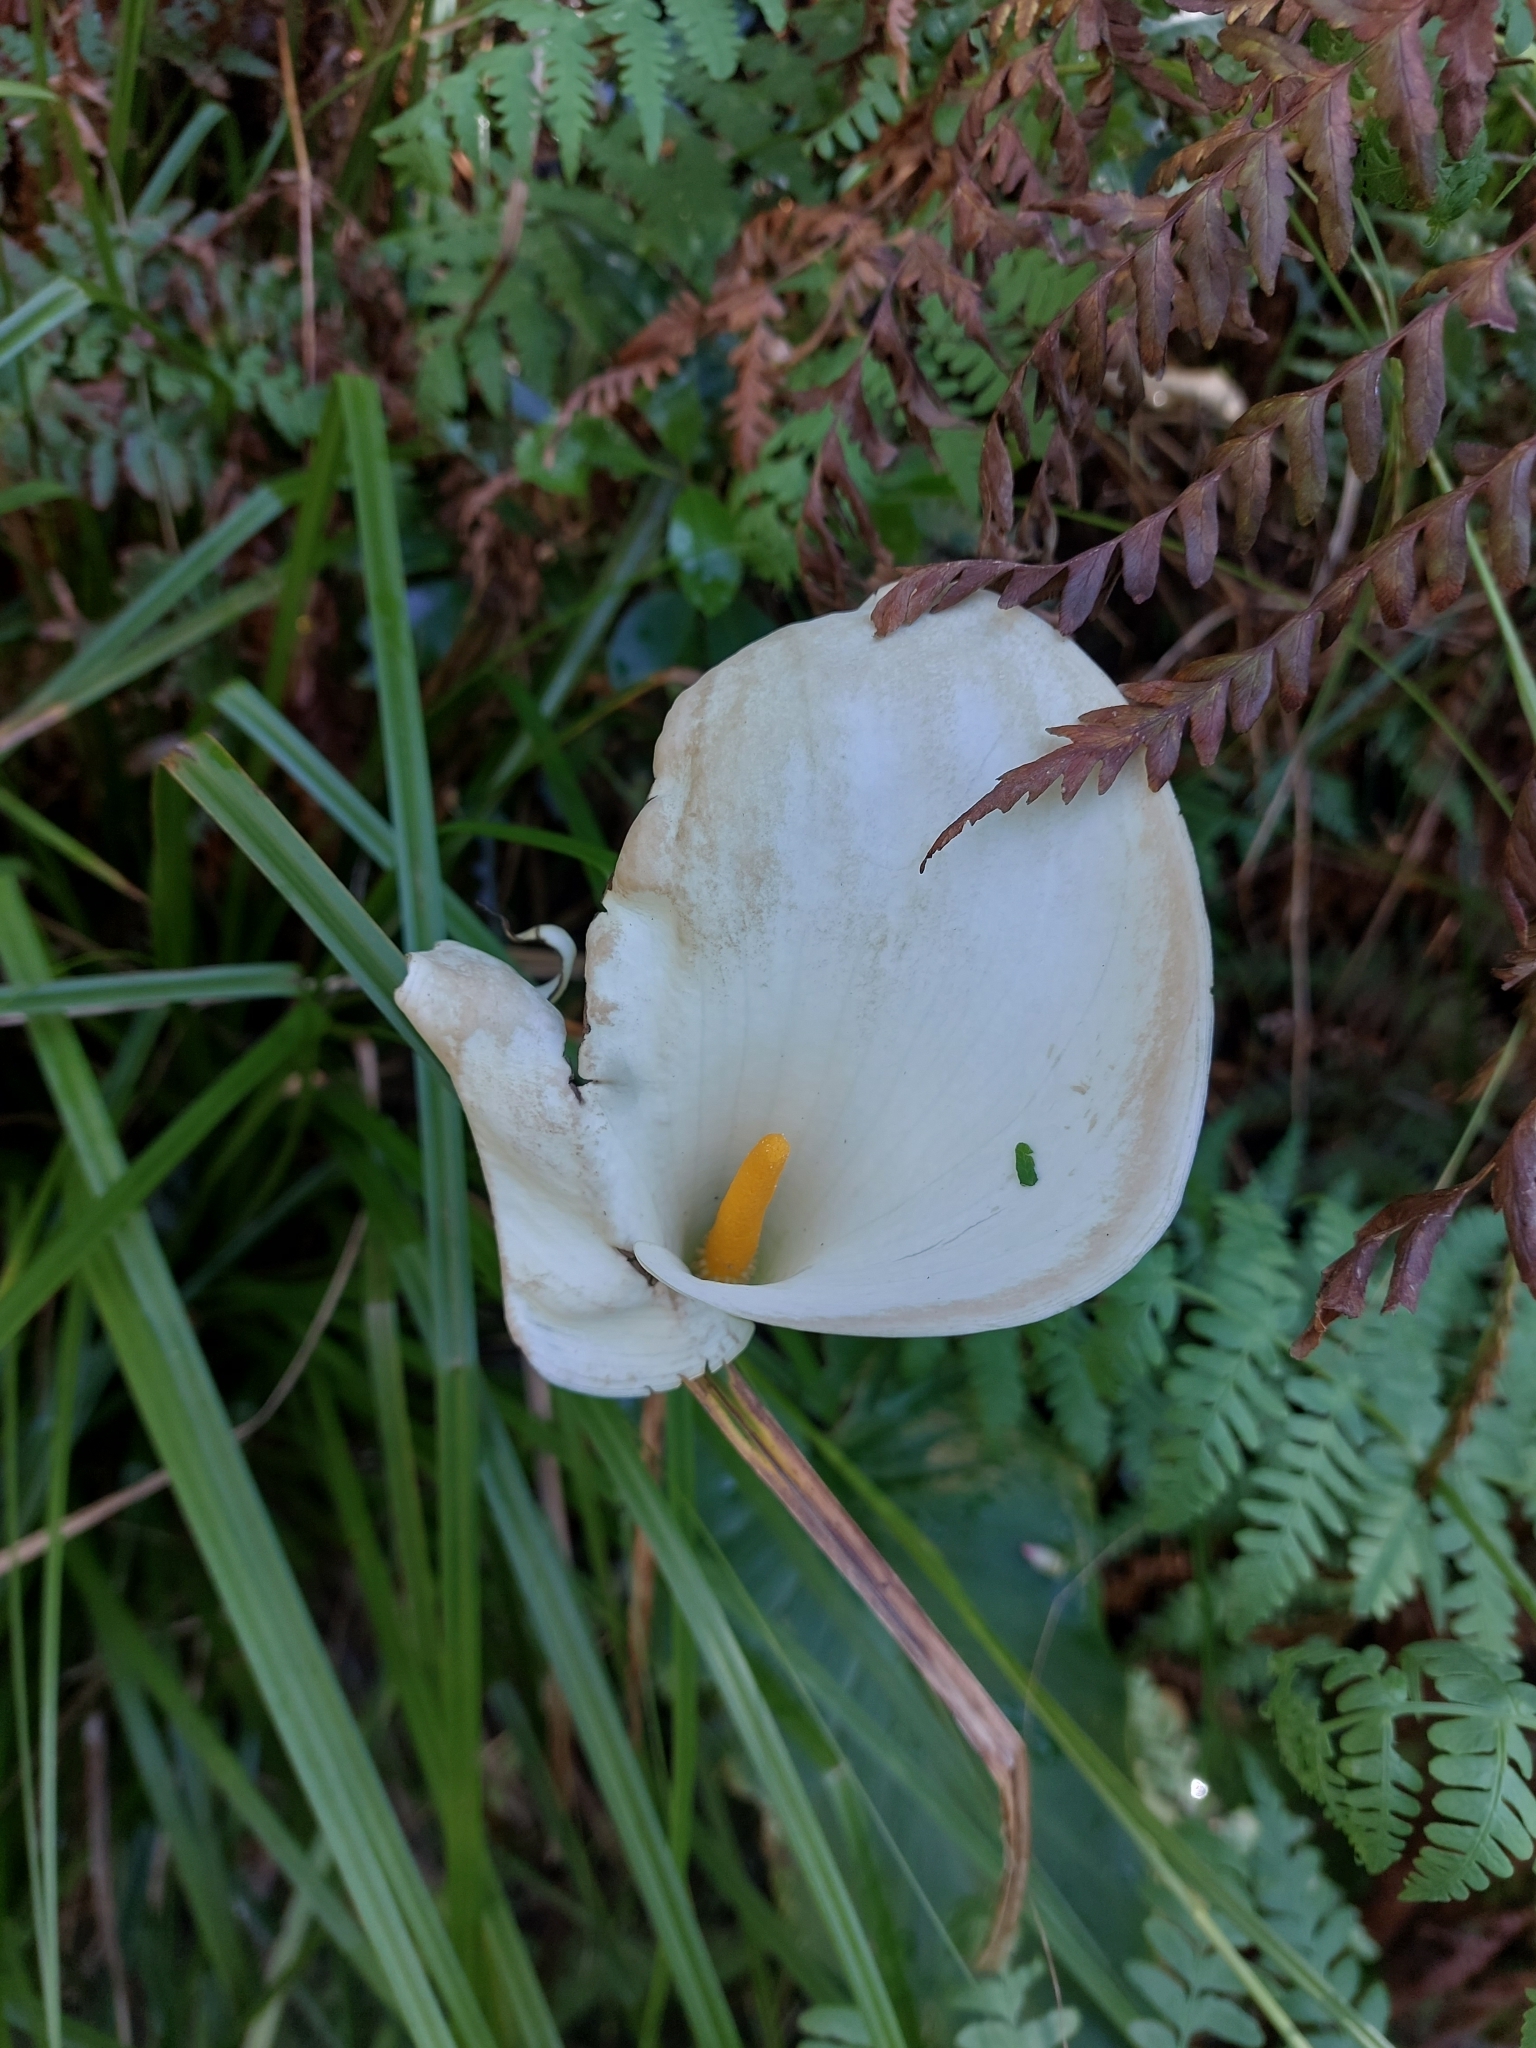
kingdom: Plantae
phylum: Tracheophyta
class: Liliopsida
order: Alismatales
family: Araceae
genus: Zantedeschia
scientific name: Zantedeschia aethiopica
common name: Altar-lily
